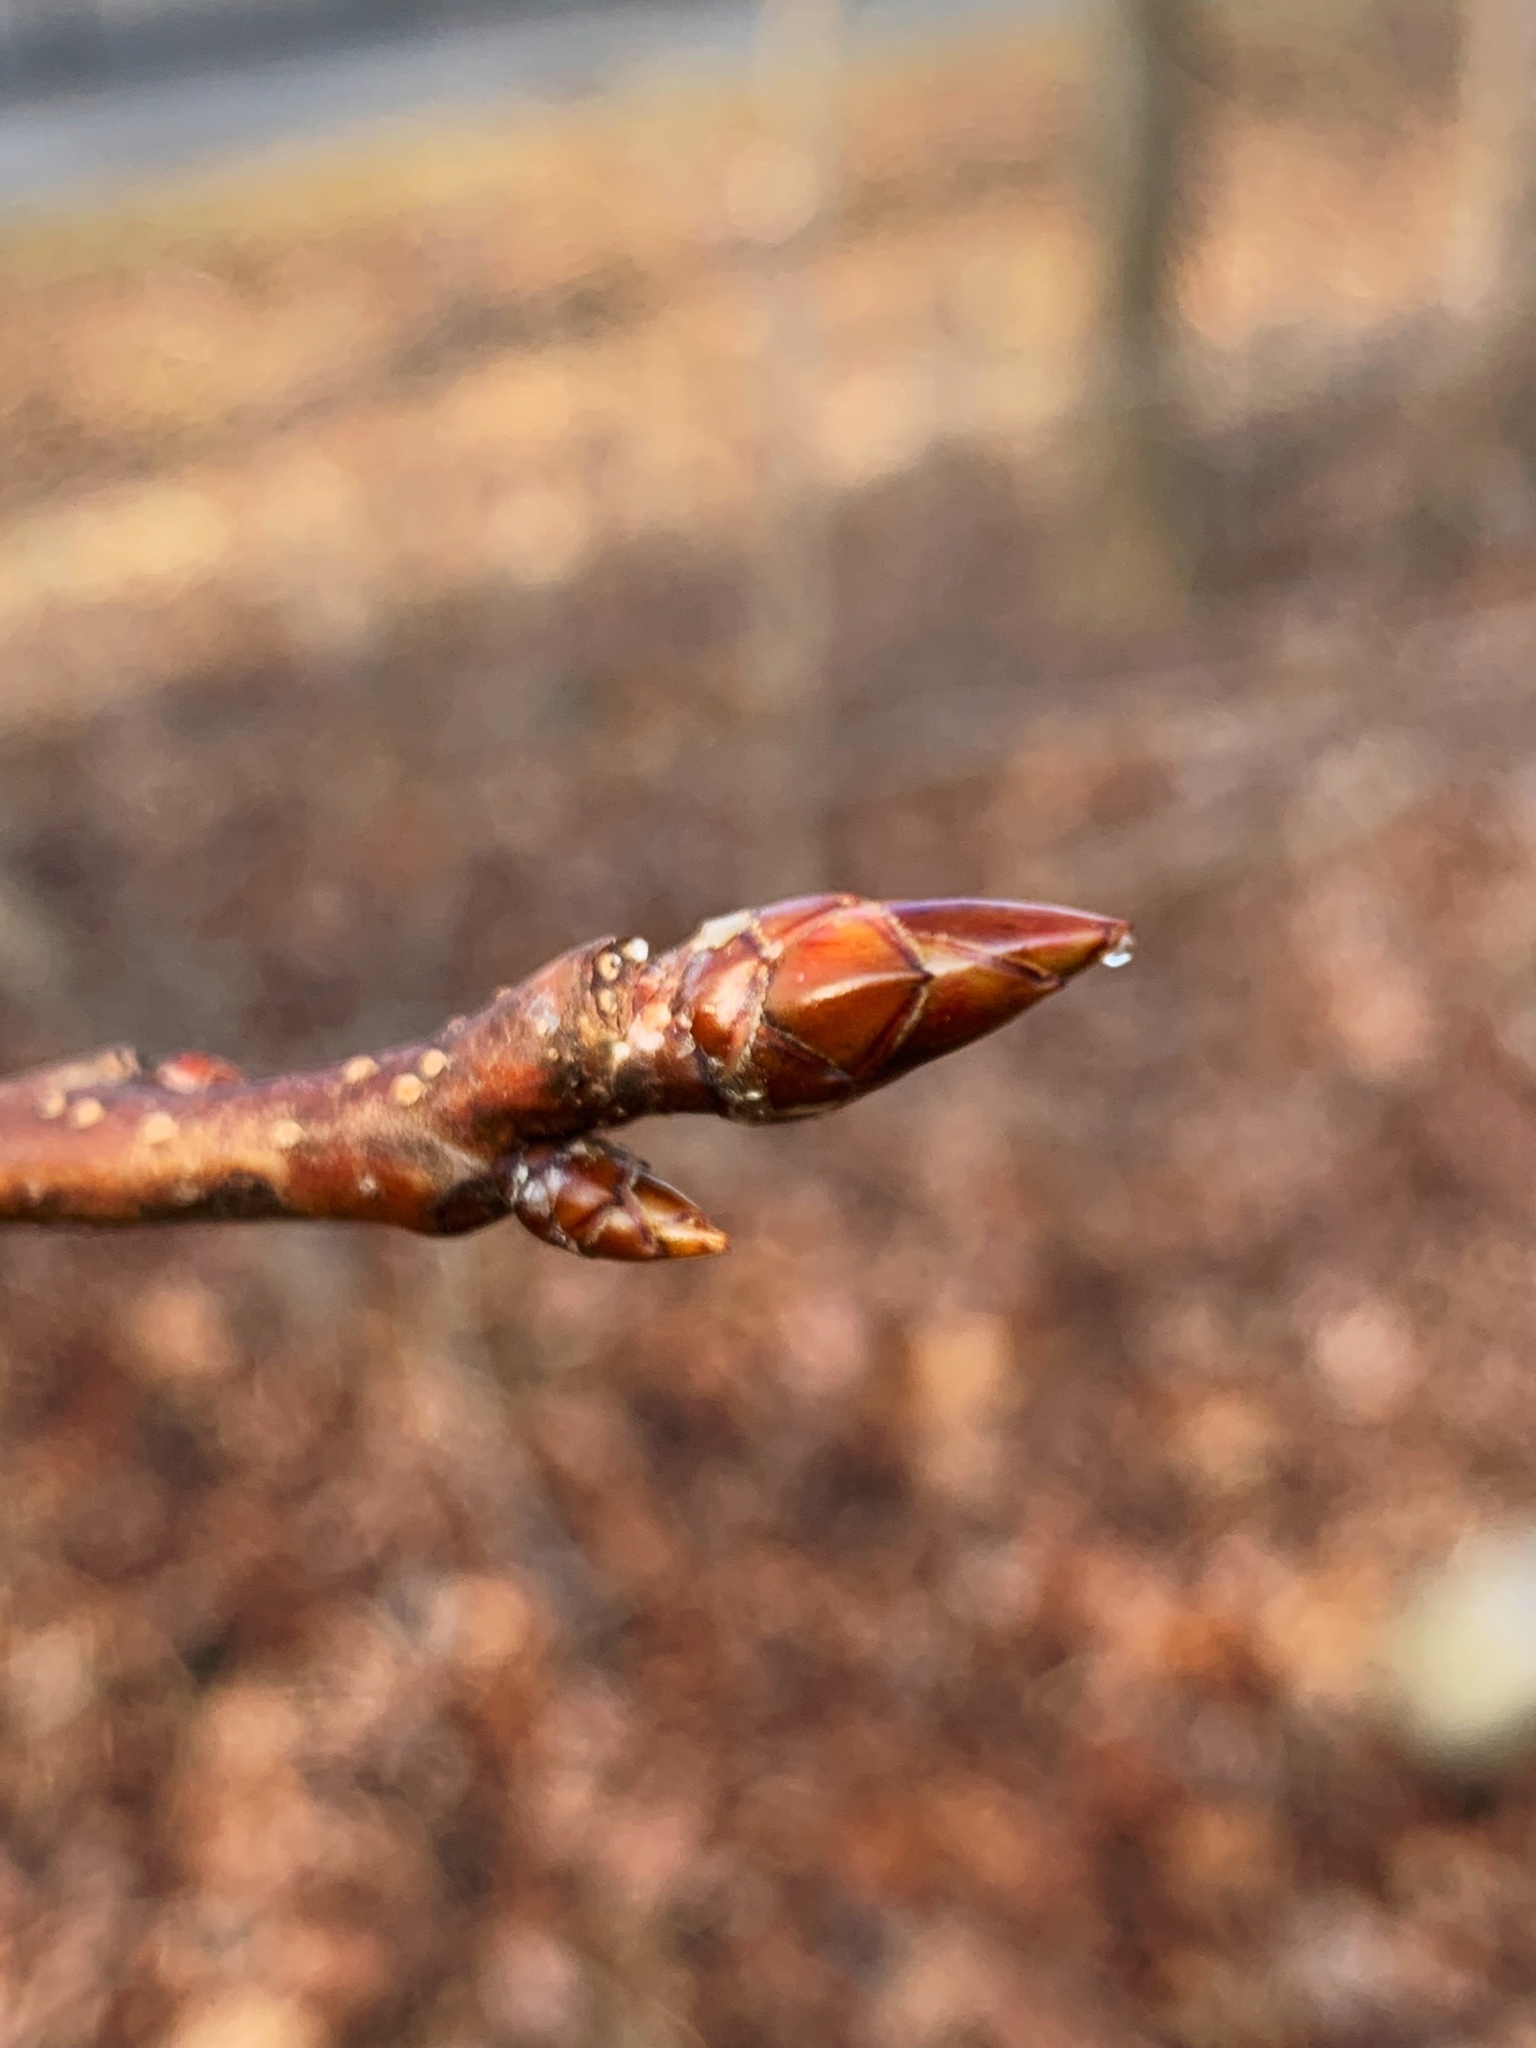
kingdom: Plantae
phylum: Tracheophyta
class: Magnoliopsida
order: Saxifragales
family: Altingiaceae
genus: Liquidambar
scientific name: Liquidambar styraciflua
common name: Sweet gum
